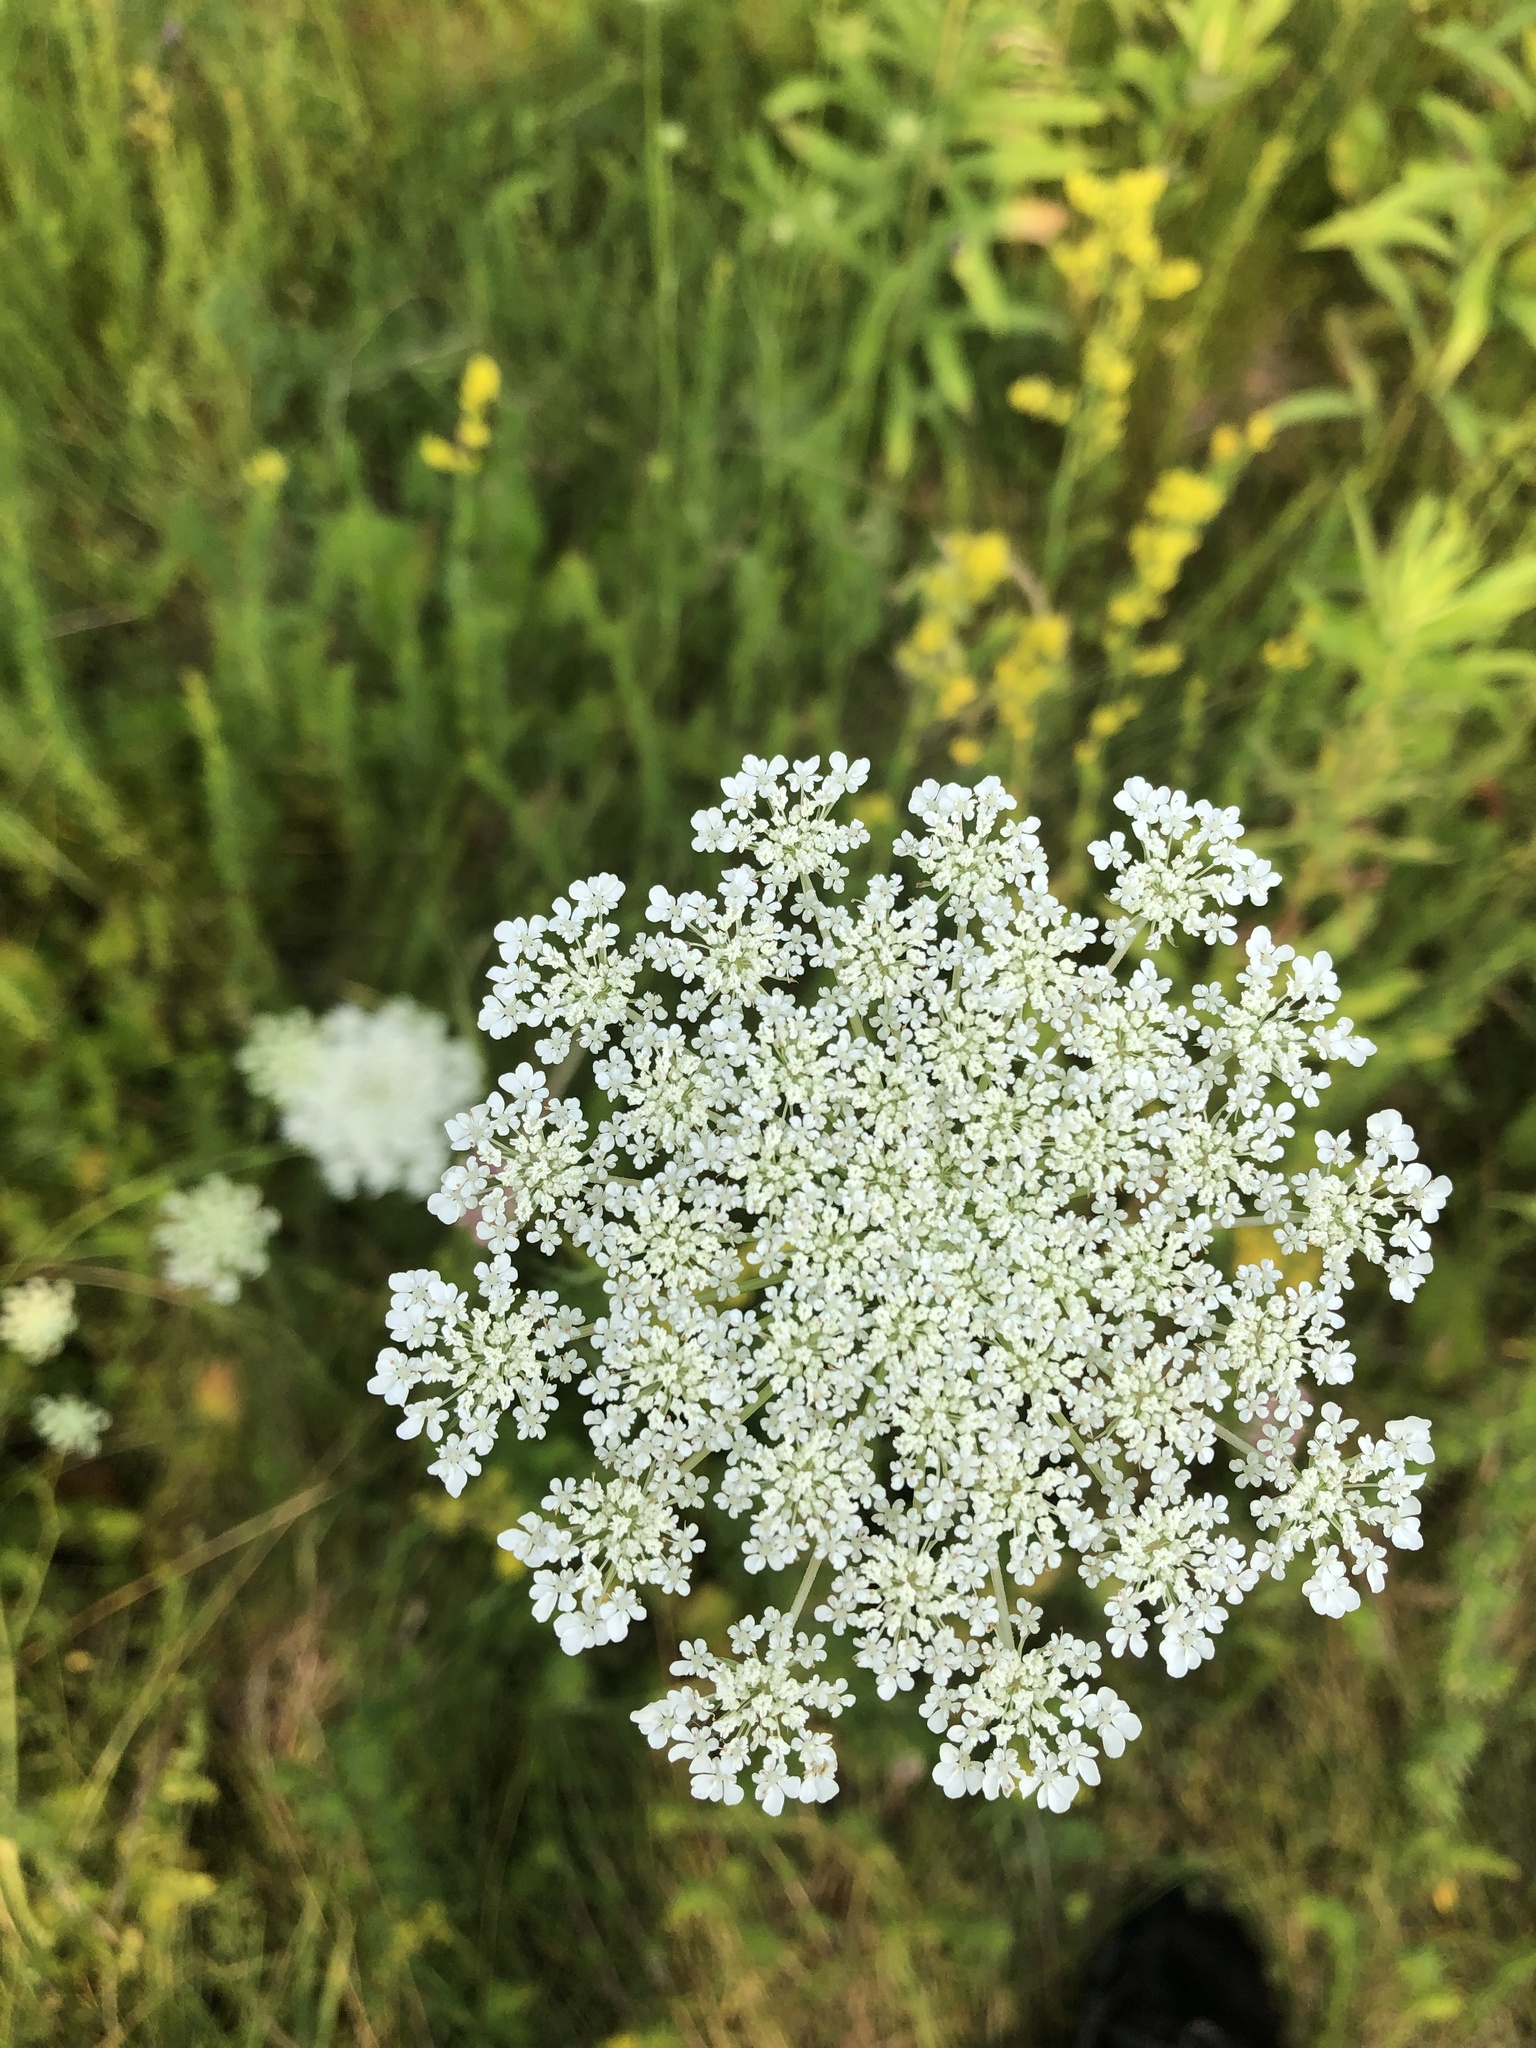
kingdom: Plantae
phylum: Tracheophyta
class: Magnoliopsida
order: Apiales
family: Apiaceae
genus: Daucus
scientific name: Daucus carota
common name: Wild carrot
